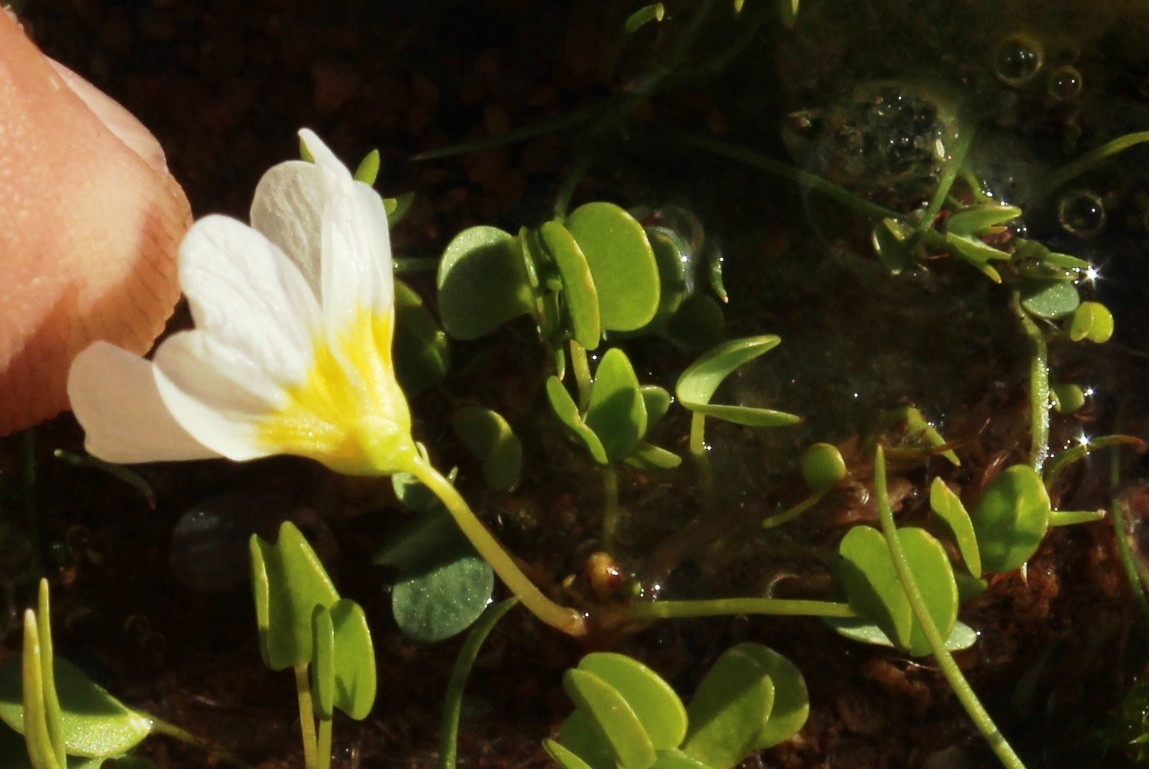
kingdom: Plantae
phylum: Tracheophyta
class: Magnoliopsida
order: Oxalidales
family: Oxalidaceae
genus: Oxalis
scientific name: Oxalis dregei
